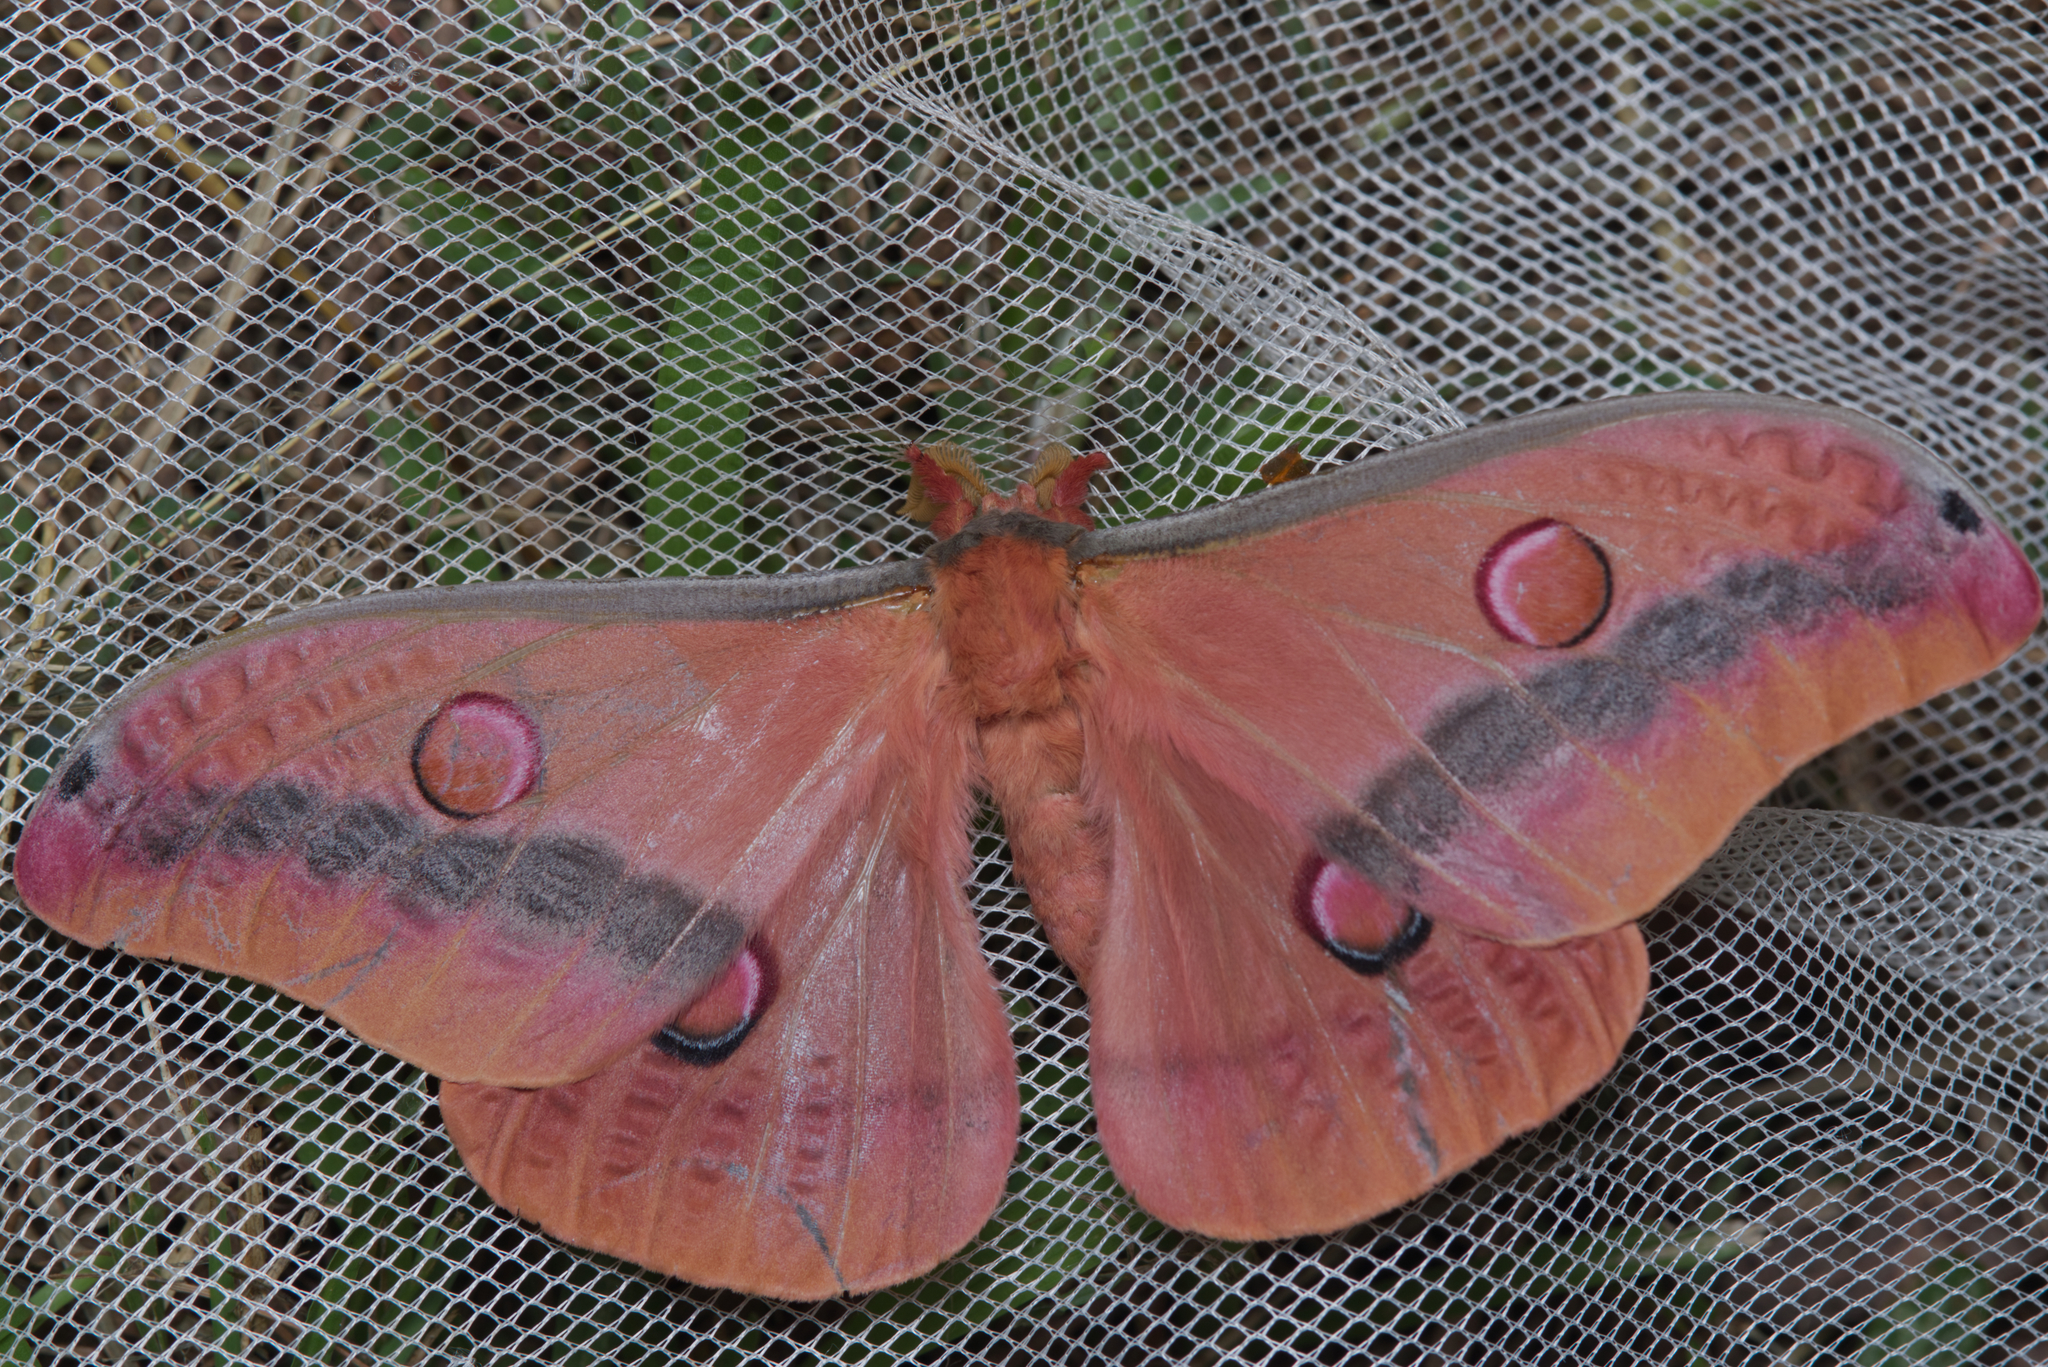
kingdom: Animalia
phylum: Arthropoda
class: Insecta
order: Lepidoptera
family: Saturniidae
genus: Opodiphthera
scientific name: Opodiphthera
